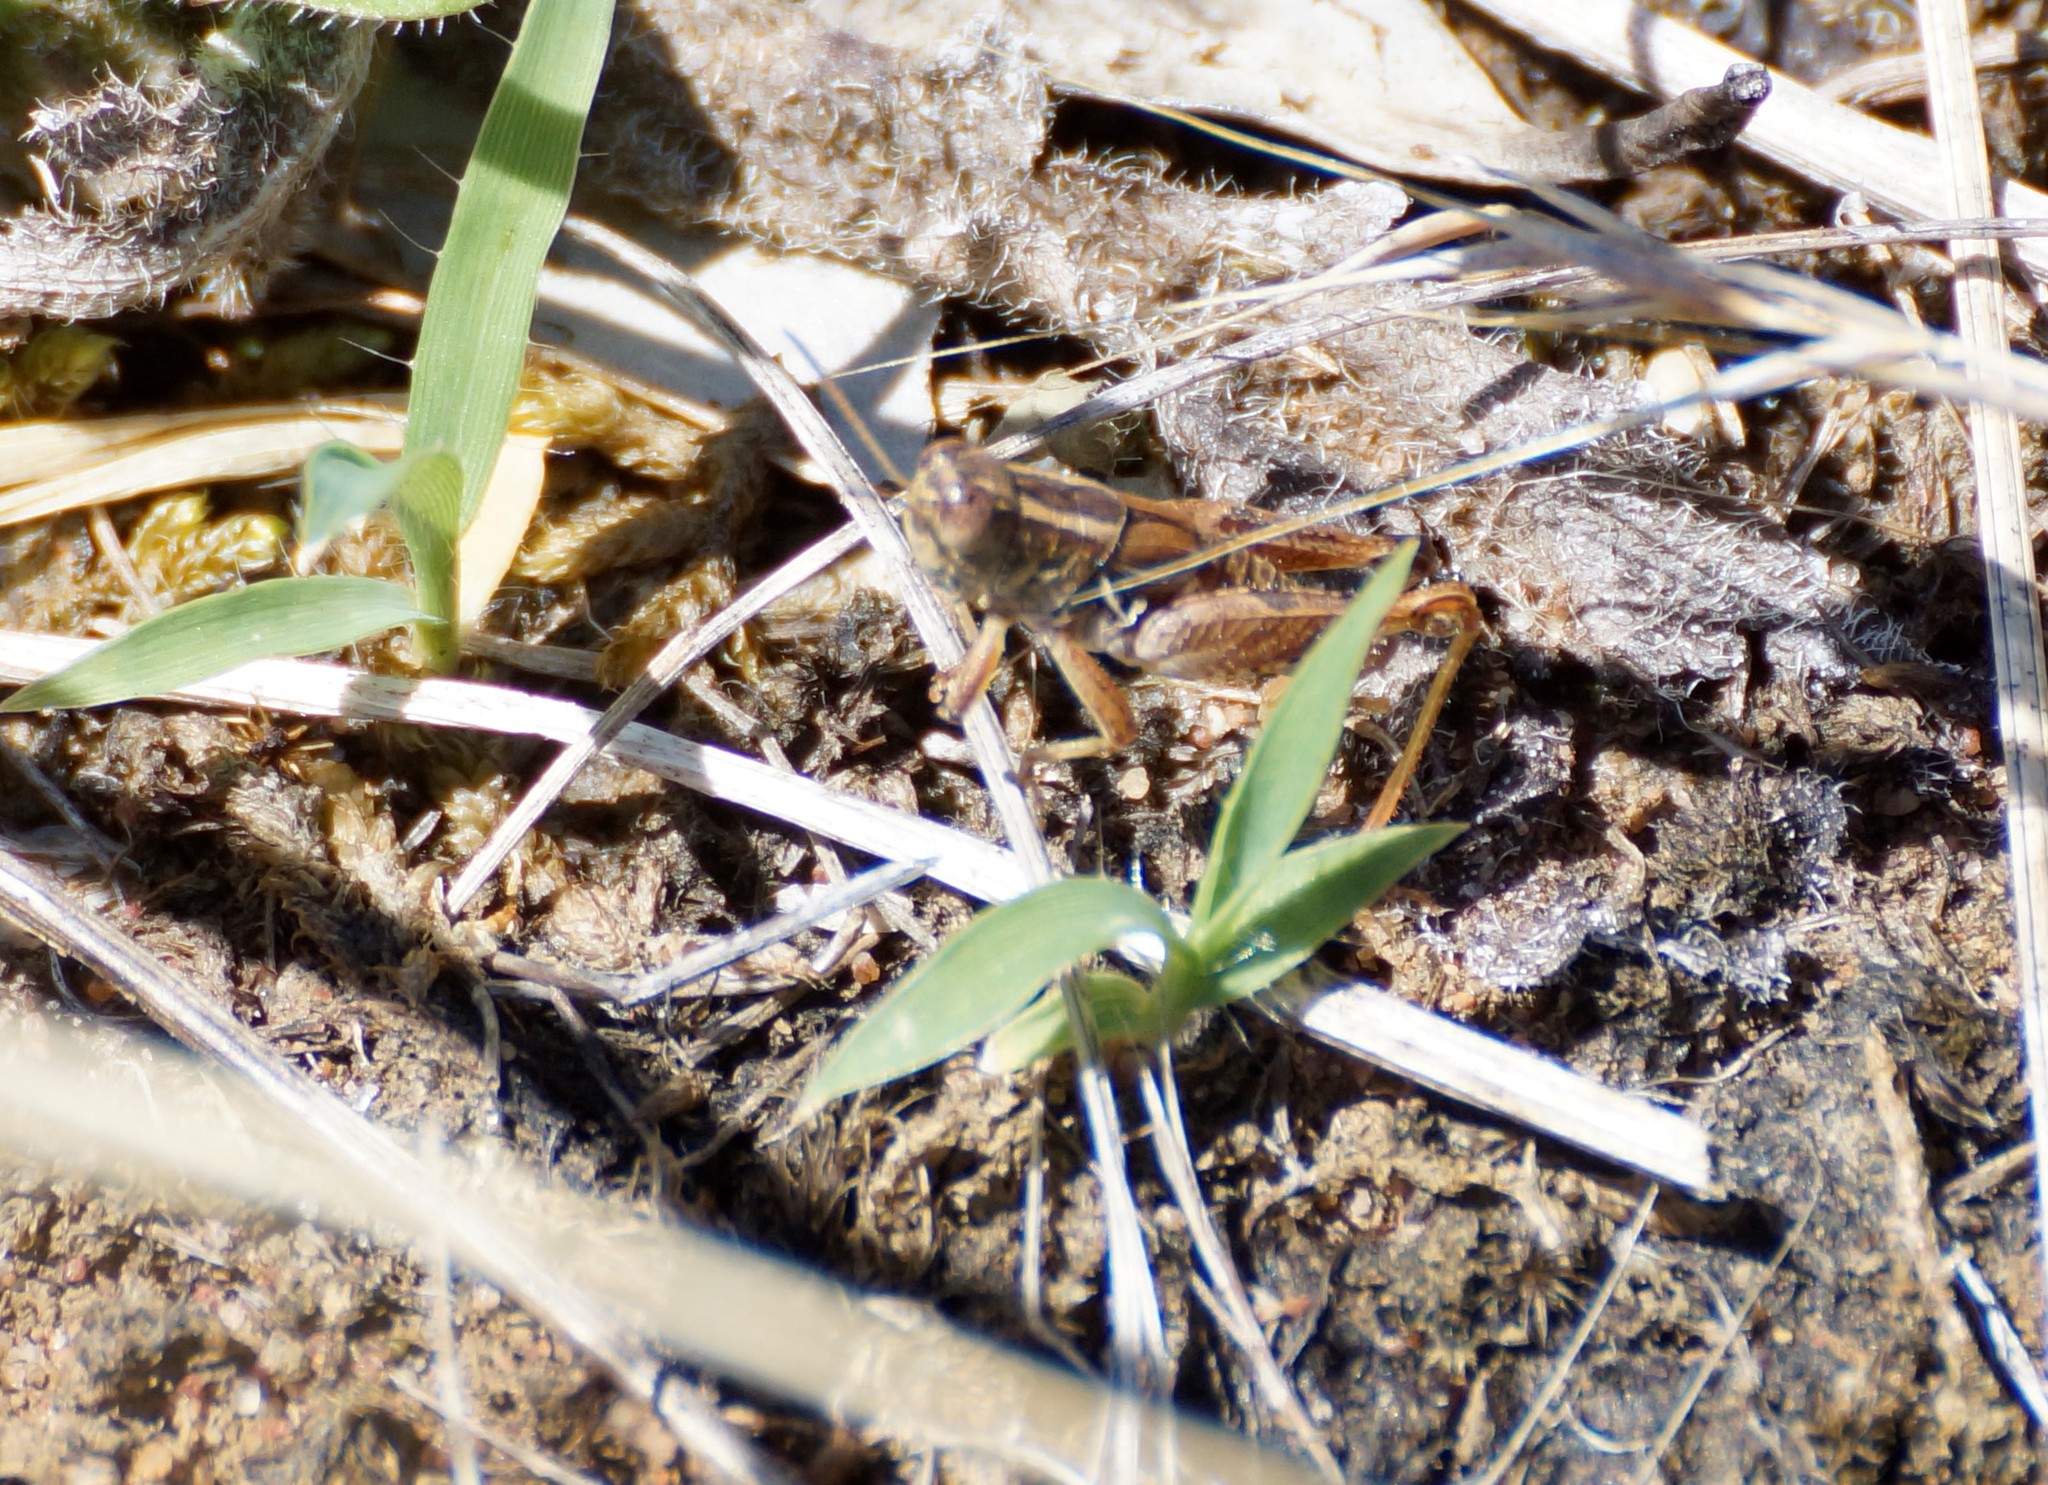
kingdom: Animalia
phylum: Arthropoda
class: Insecta
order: Orthoptera
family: Acrididae
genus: Brachyexarna
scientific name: Brachyexarna lobipennis
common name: Stripe-winged meadow grasshopper
